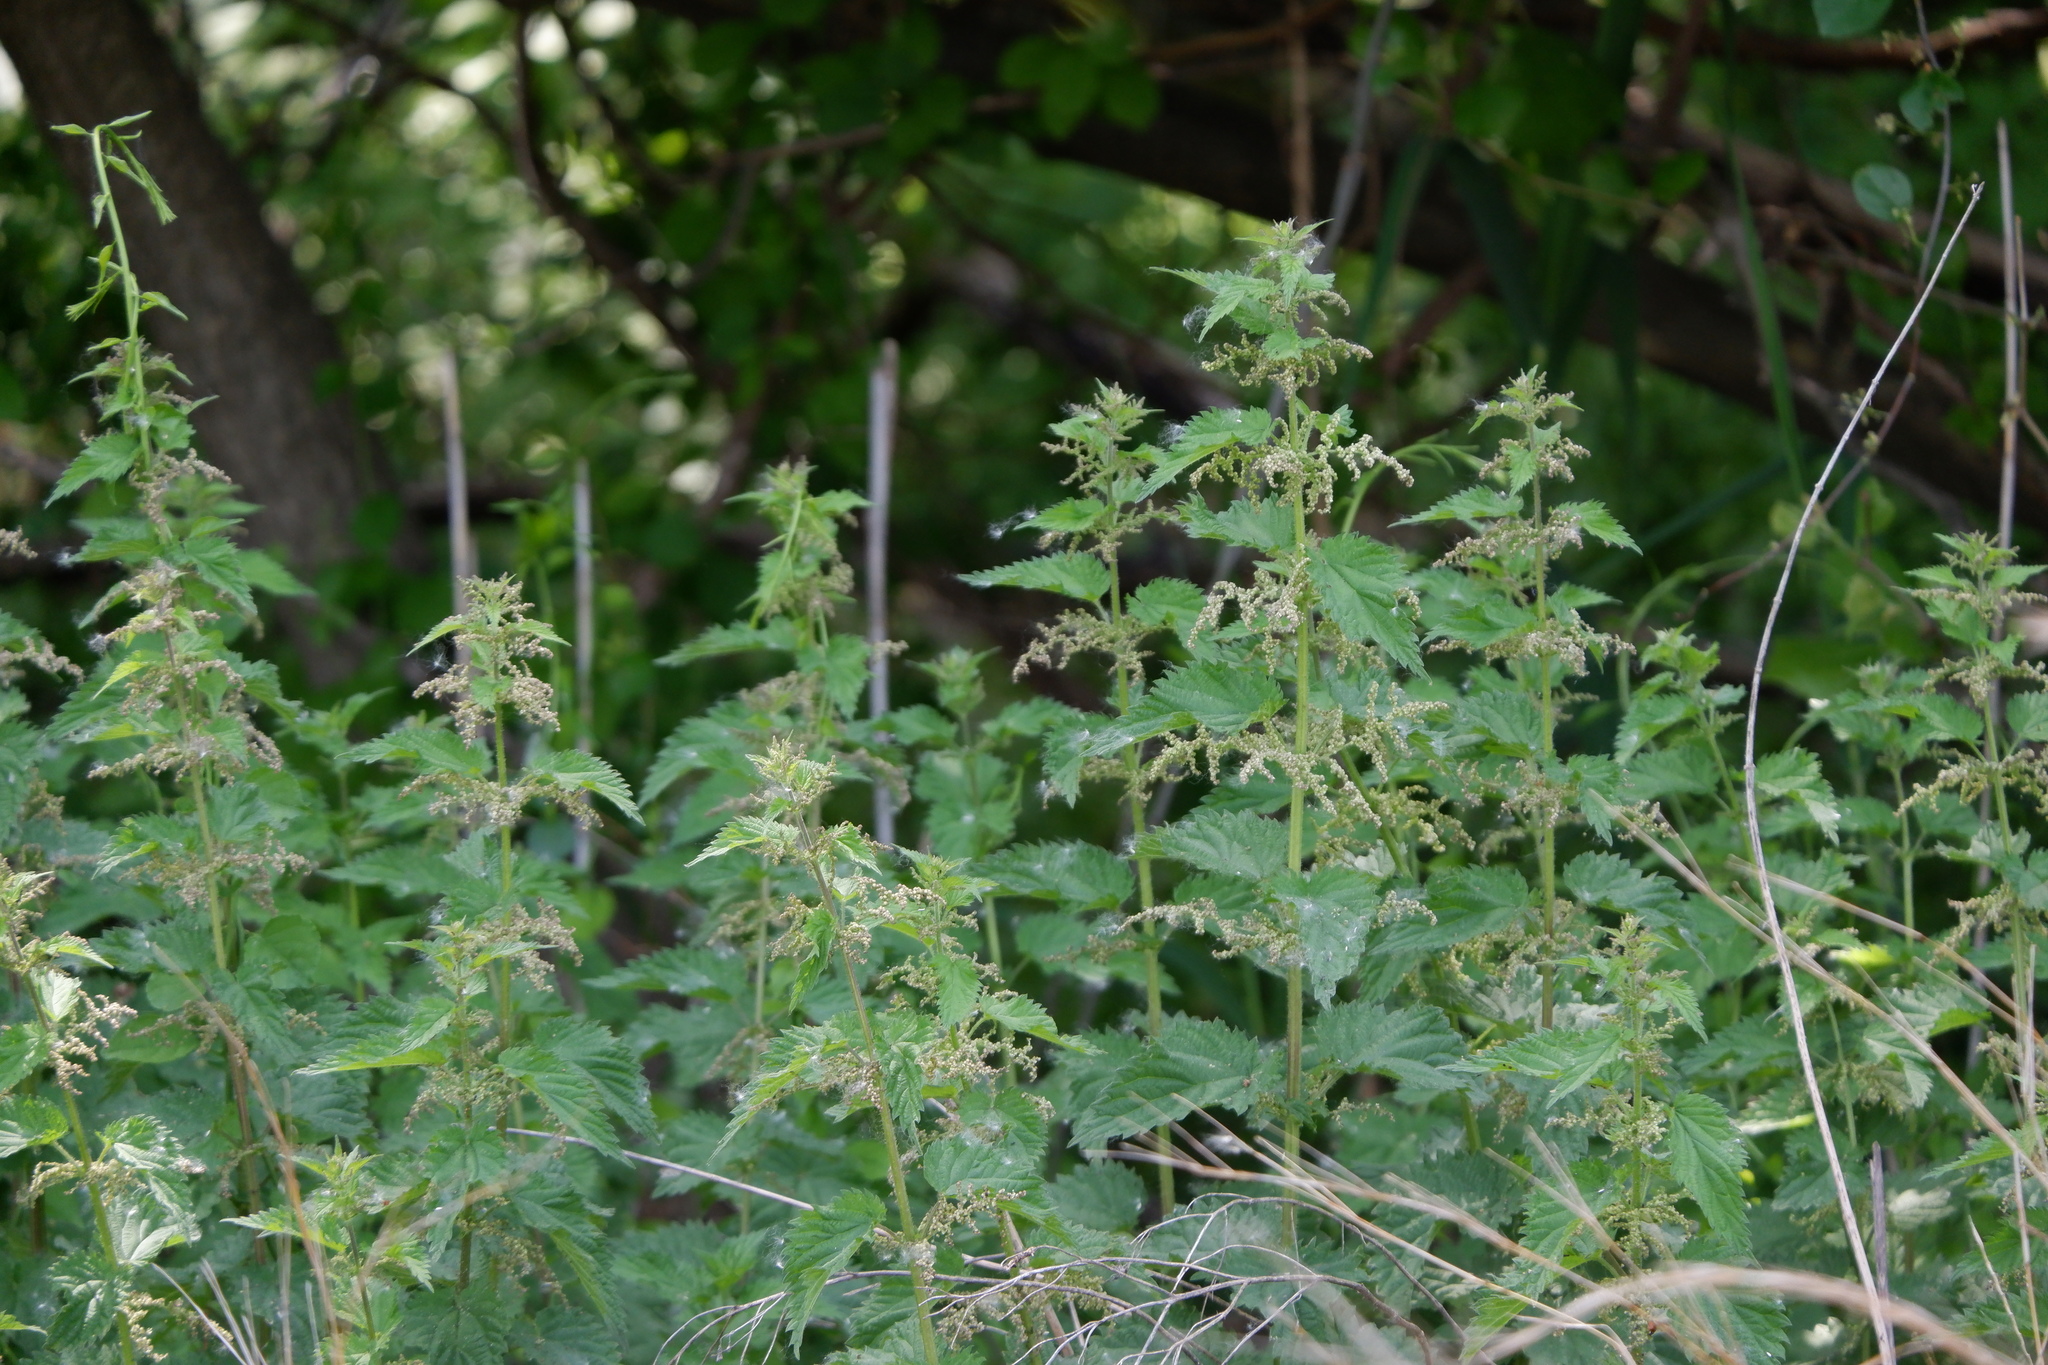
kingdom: Plantae
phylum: Tracheophyta
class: Magnoliopsida
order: Rosales
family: Urticaceae
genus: Urtica
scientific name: Urtica dioica
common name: Common nettle
